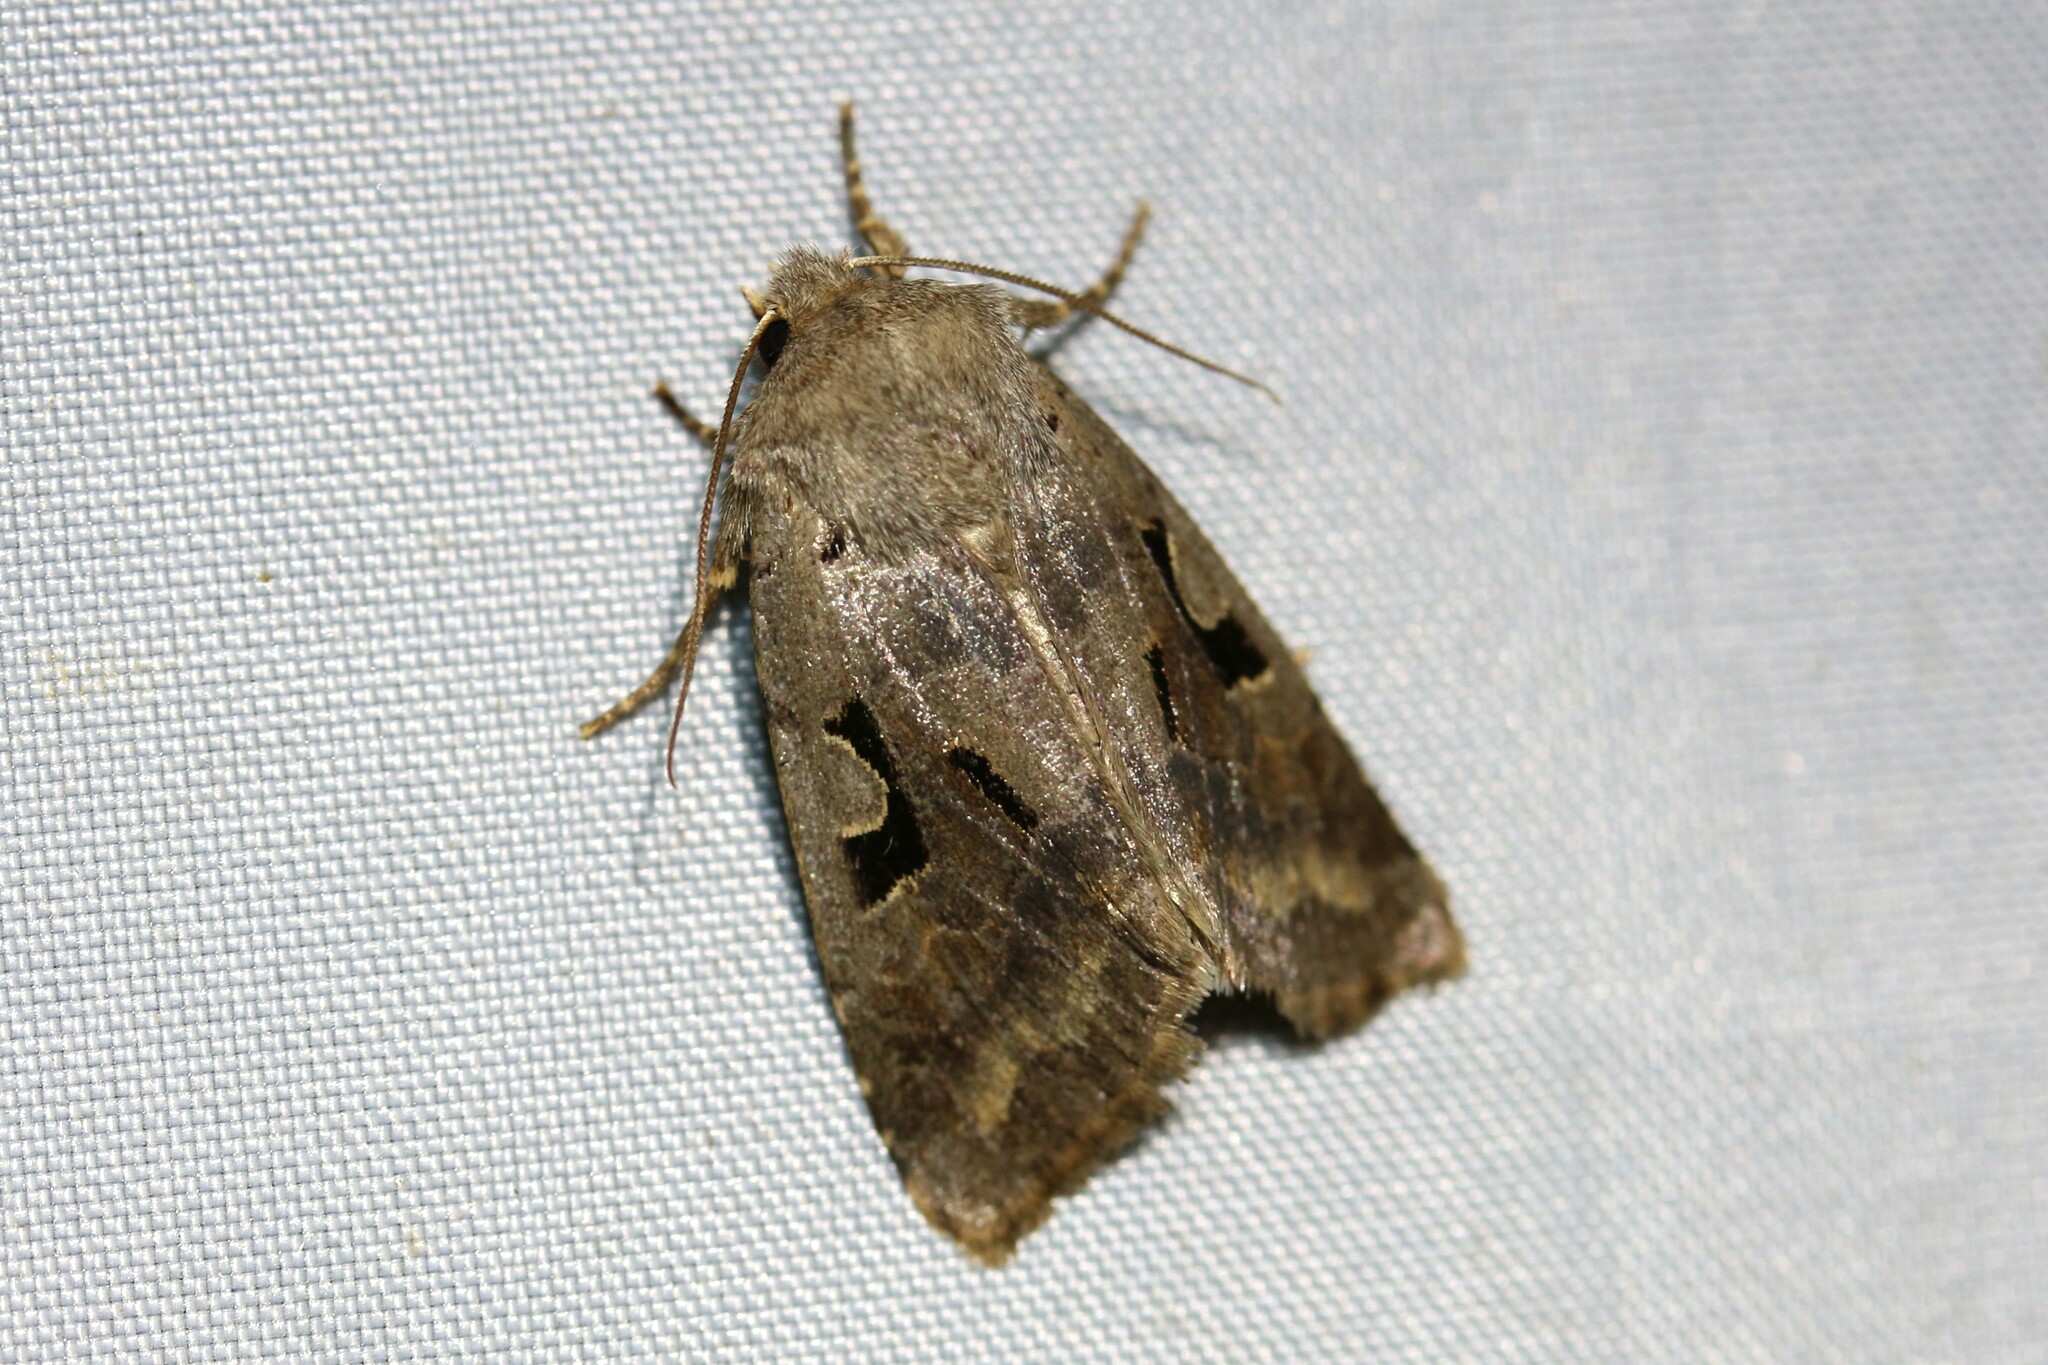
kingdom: Animalia
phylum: Arthropoda
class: Insecta
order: Lepidoptera
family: Noctuidae
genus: Orthosia
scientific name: Orthosia gothica
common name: Hebrew character
